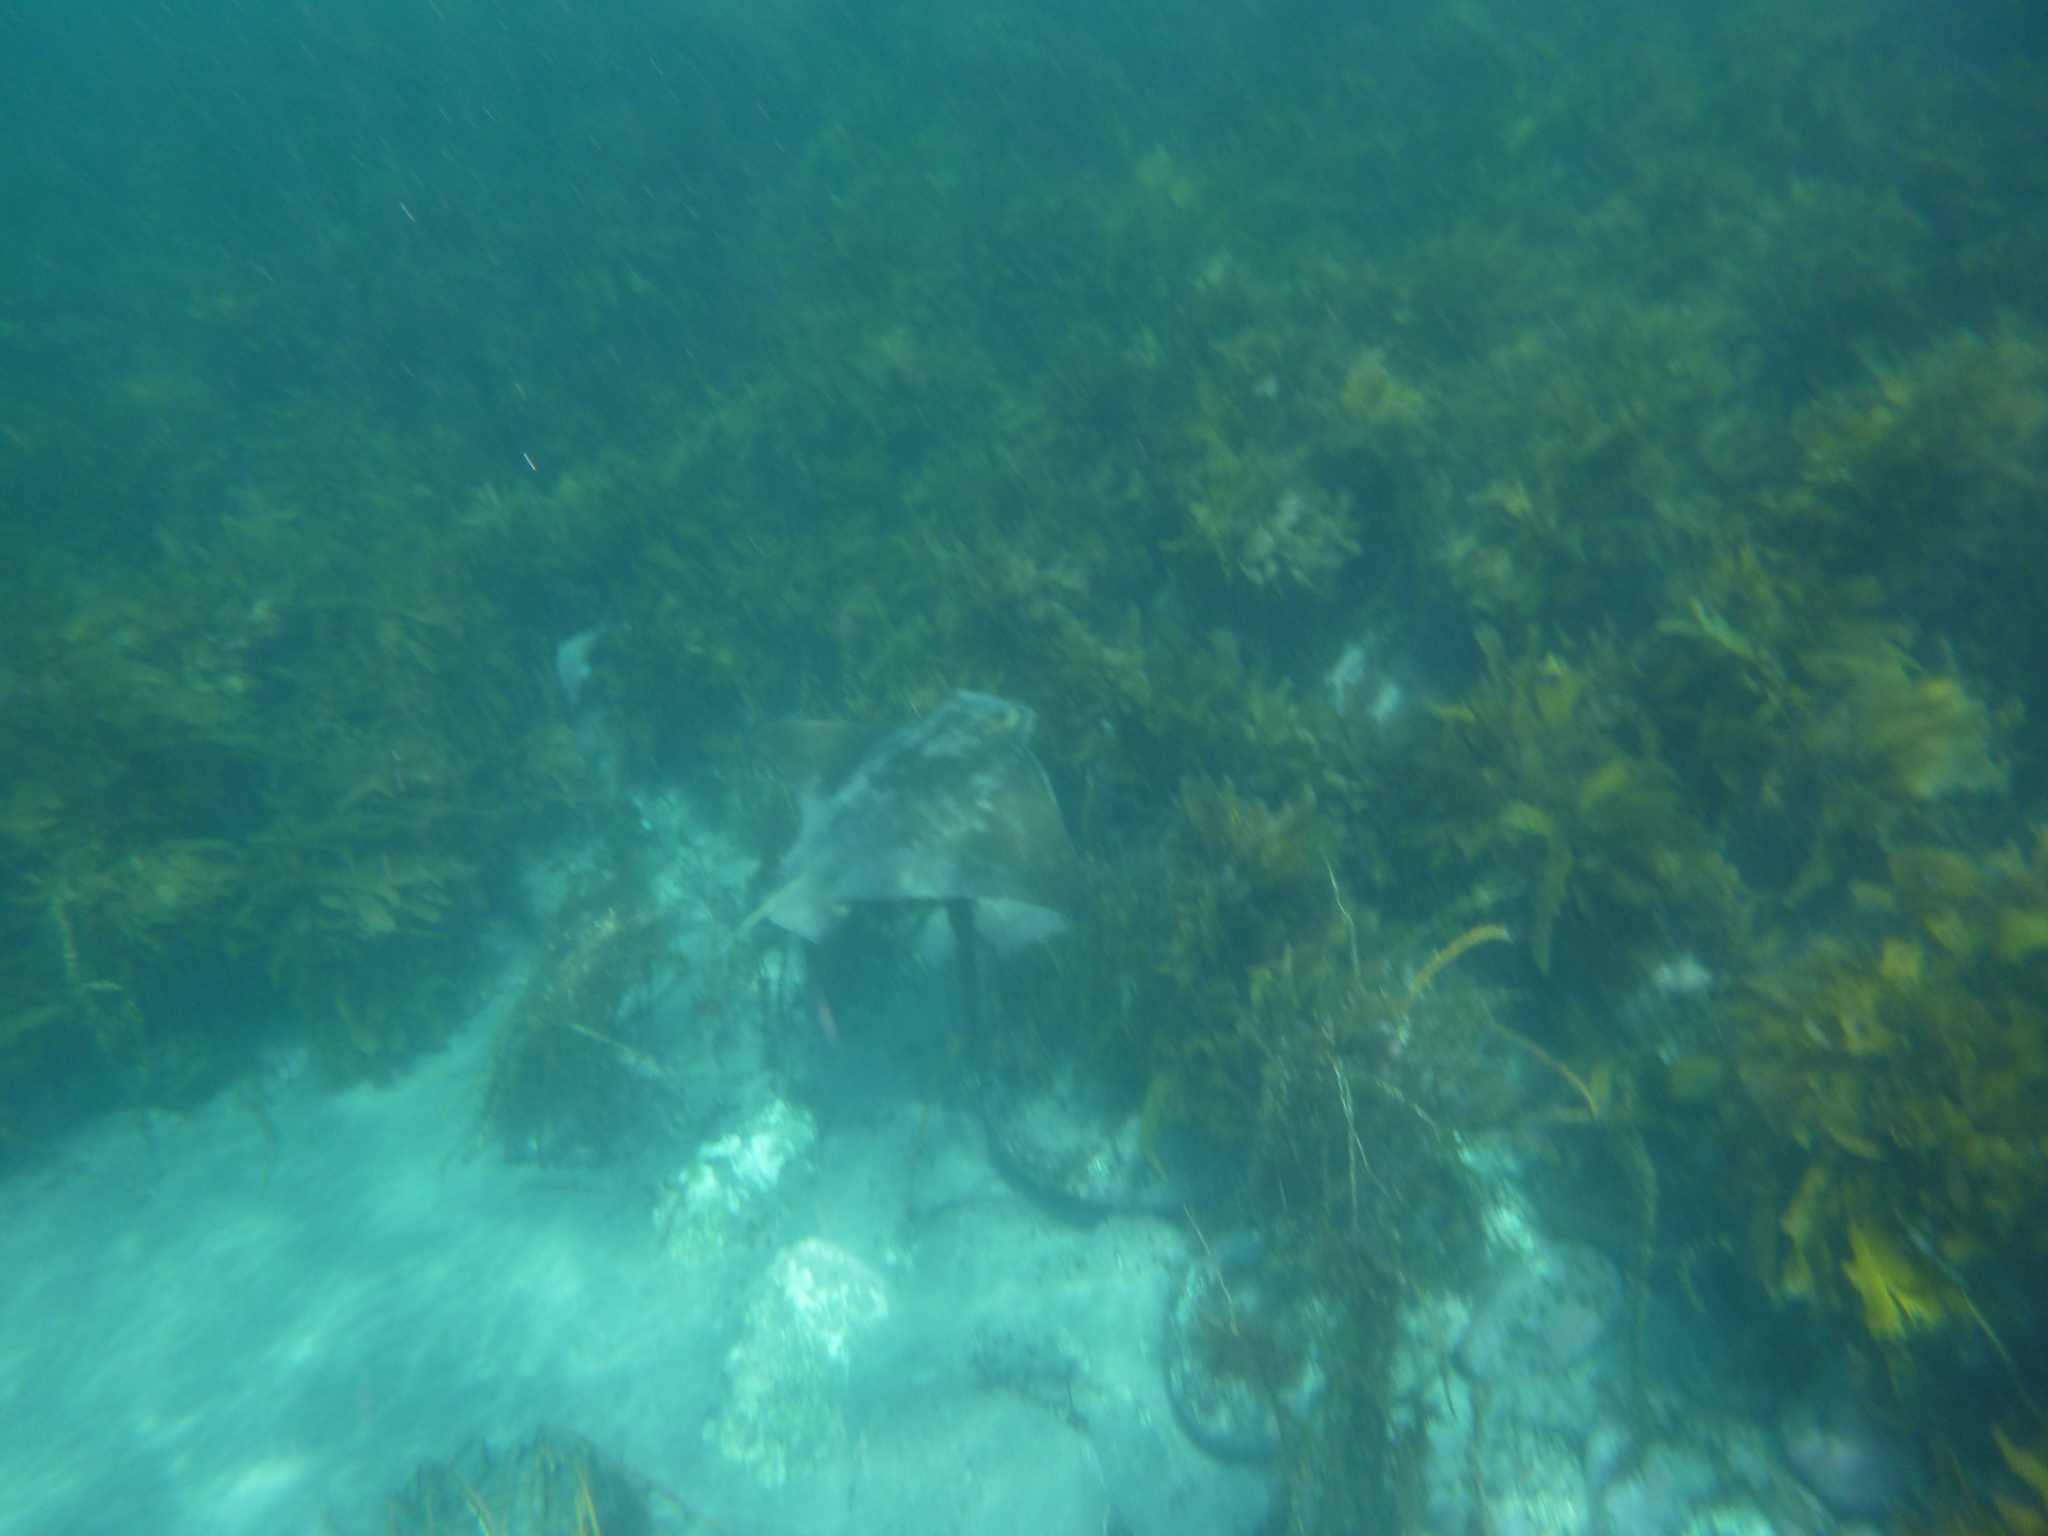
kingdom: Animalia
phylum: Chordata
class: Elasmobranchii
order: Myliobatiformes
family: Myliobatidae
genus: Myliobatis
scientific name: Myliobatis tenuicaudatus
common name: Eagle ray
